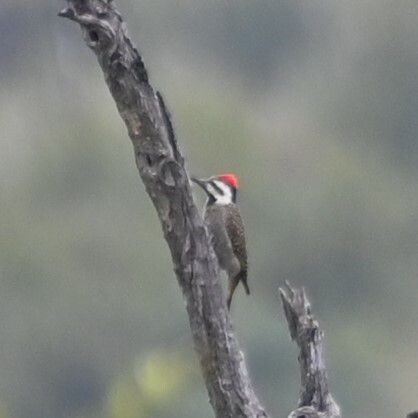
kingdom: Animalia
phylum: Chordata
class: Aves
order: Piciformes
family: Picidae
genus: Chloropicus
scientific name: Chloropicus namaquus
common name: Bearded woodpecker
